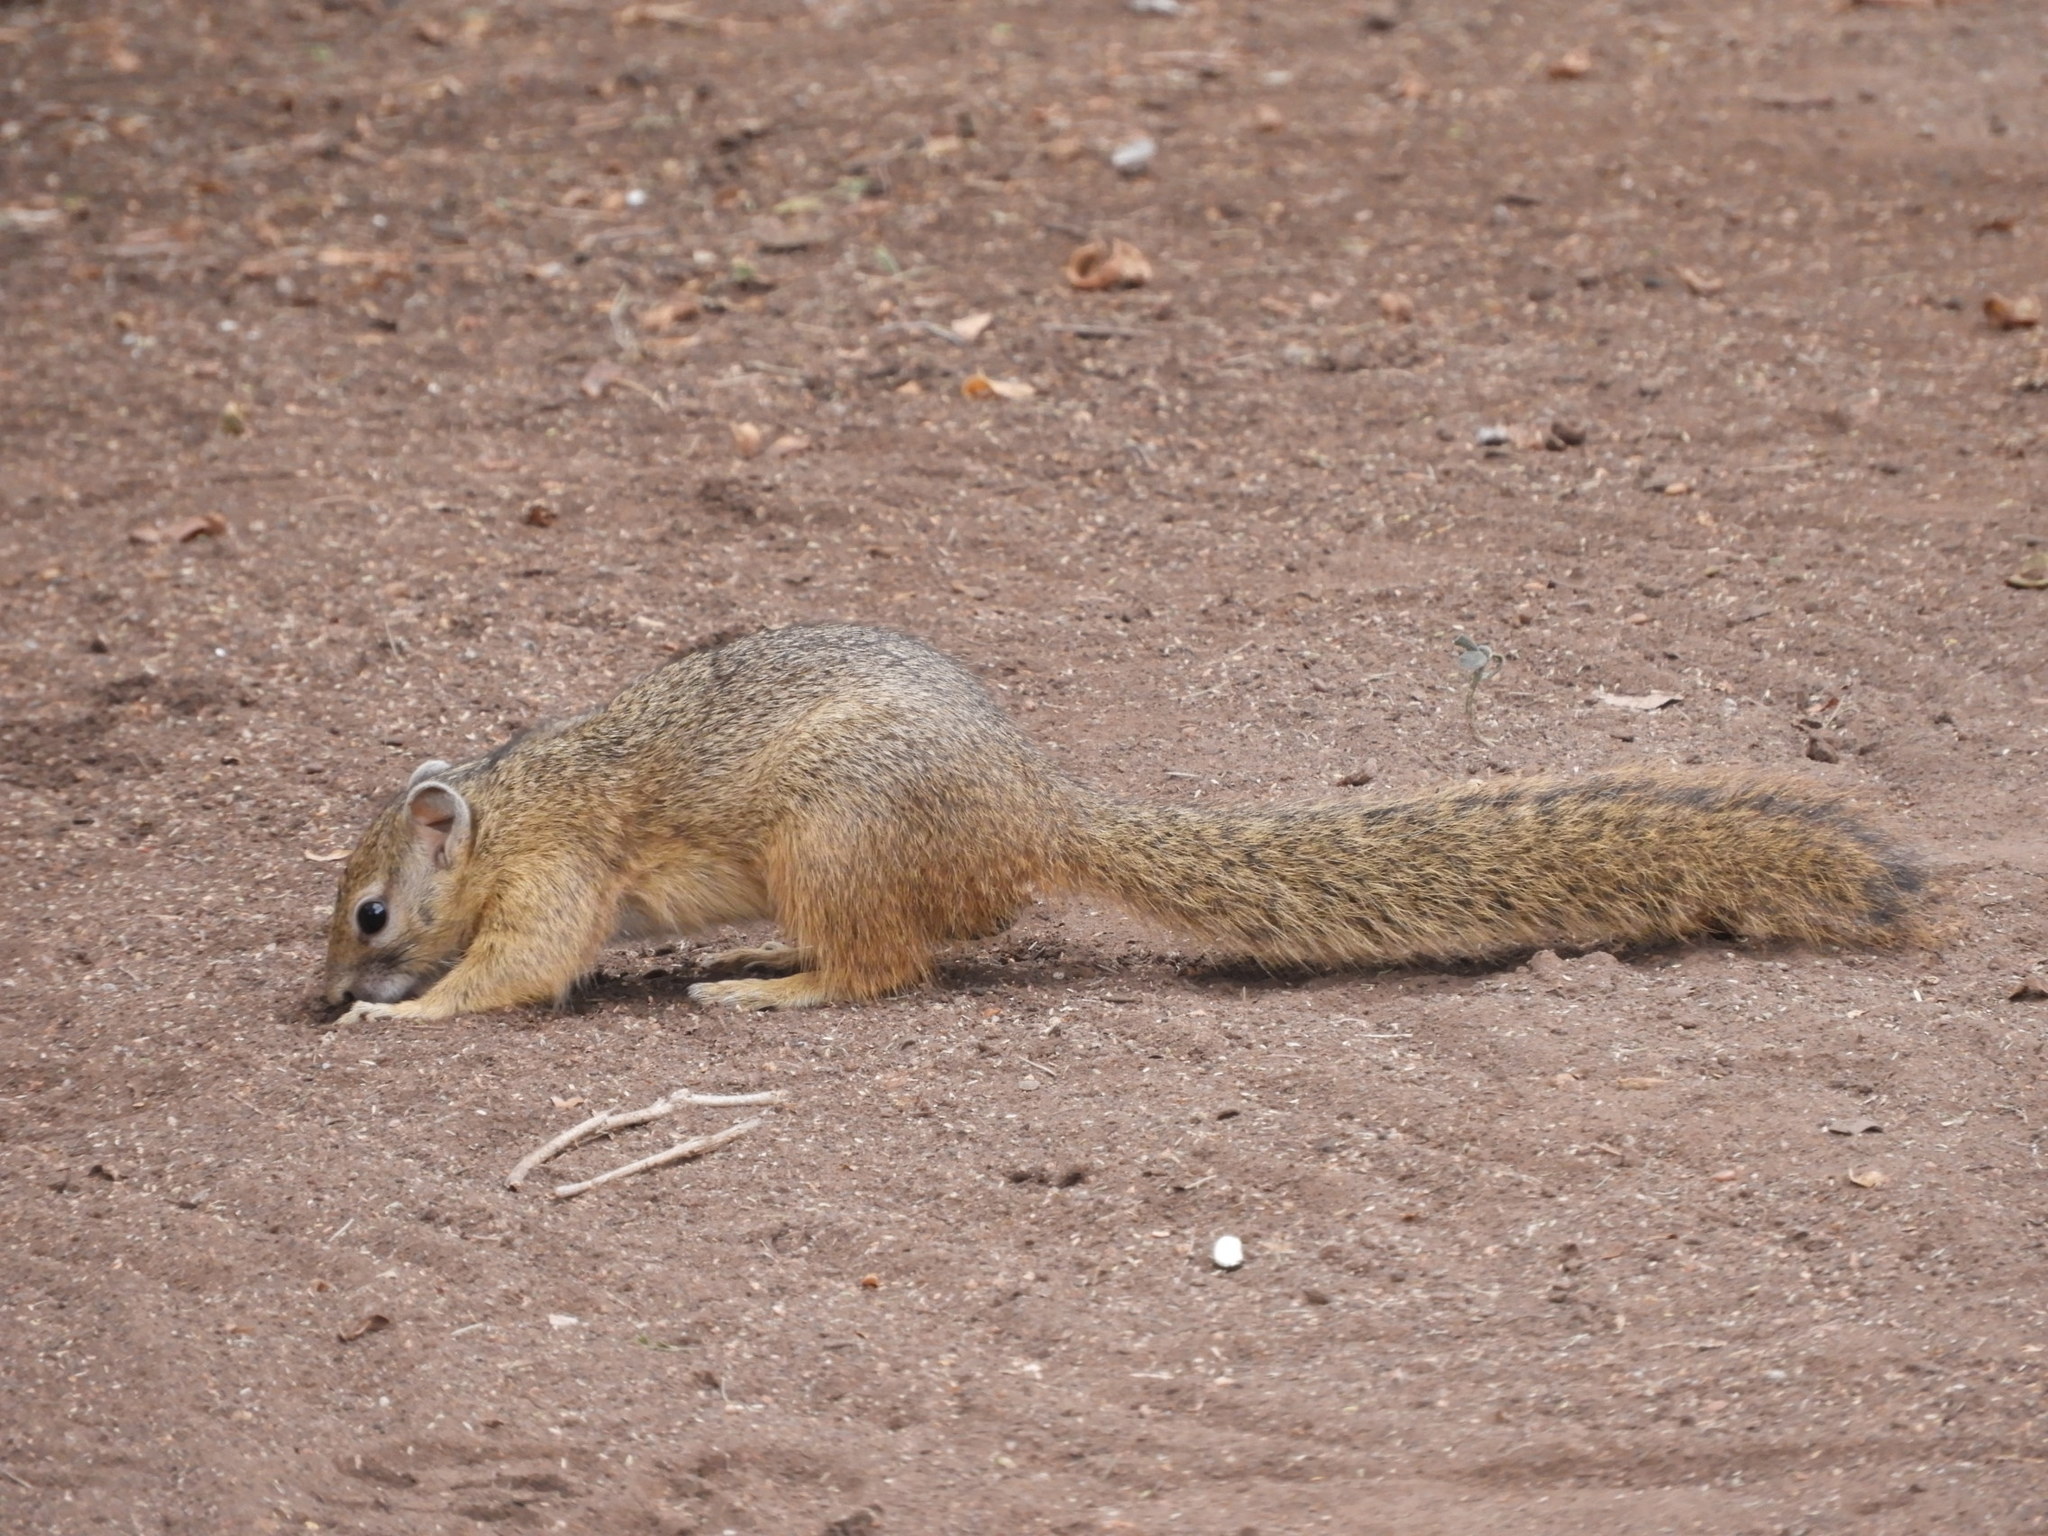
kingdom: Animalia
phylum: Chordata
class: Mammalia
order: Rodentia
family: Sciuridae
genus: Paraxerus
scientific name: Paraxerus cepapi
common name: Smith's bush squirrel
